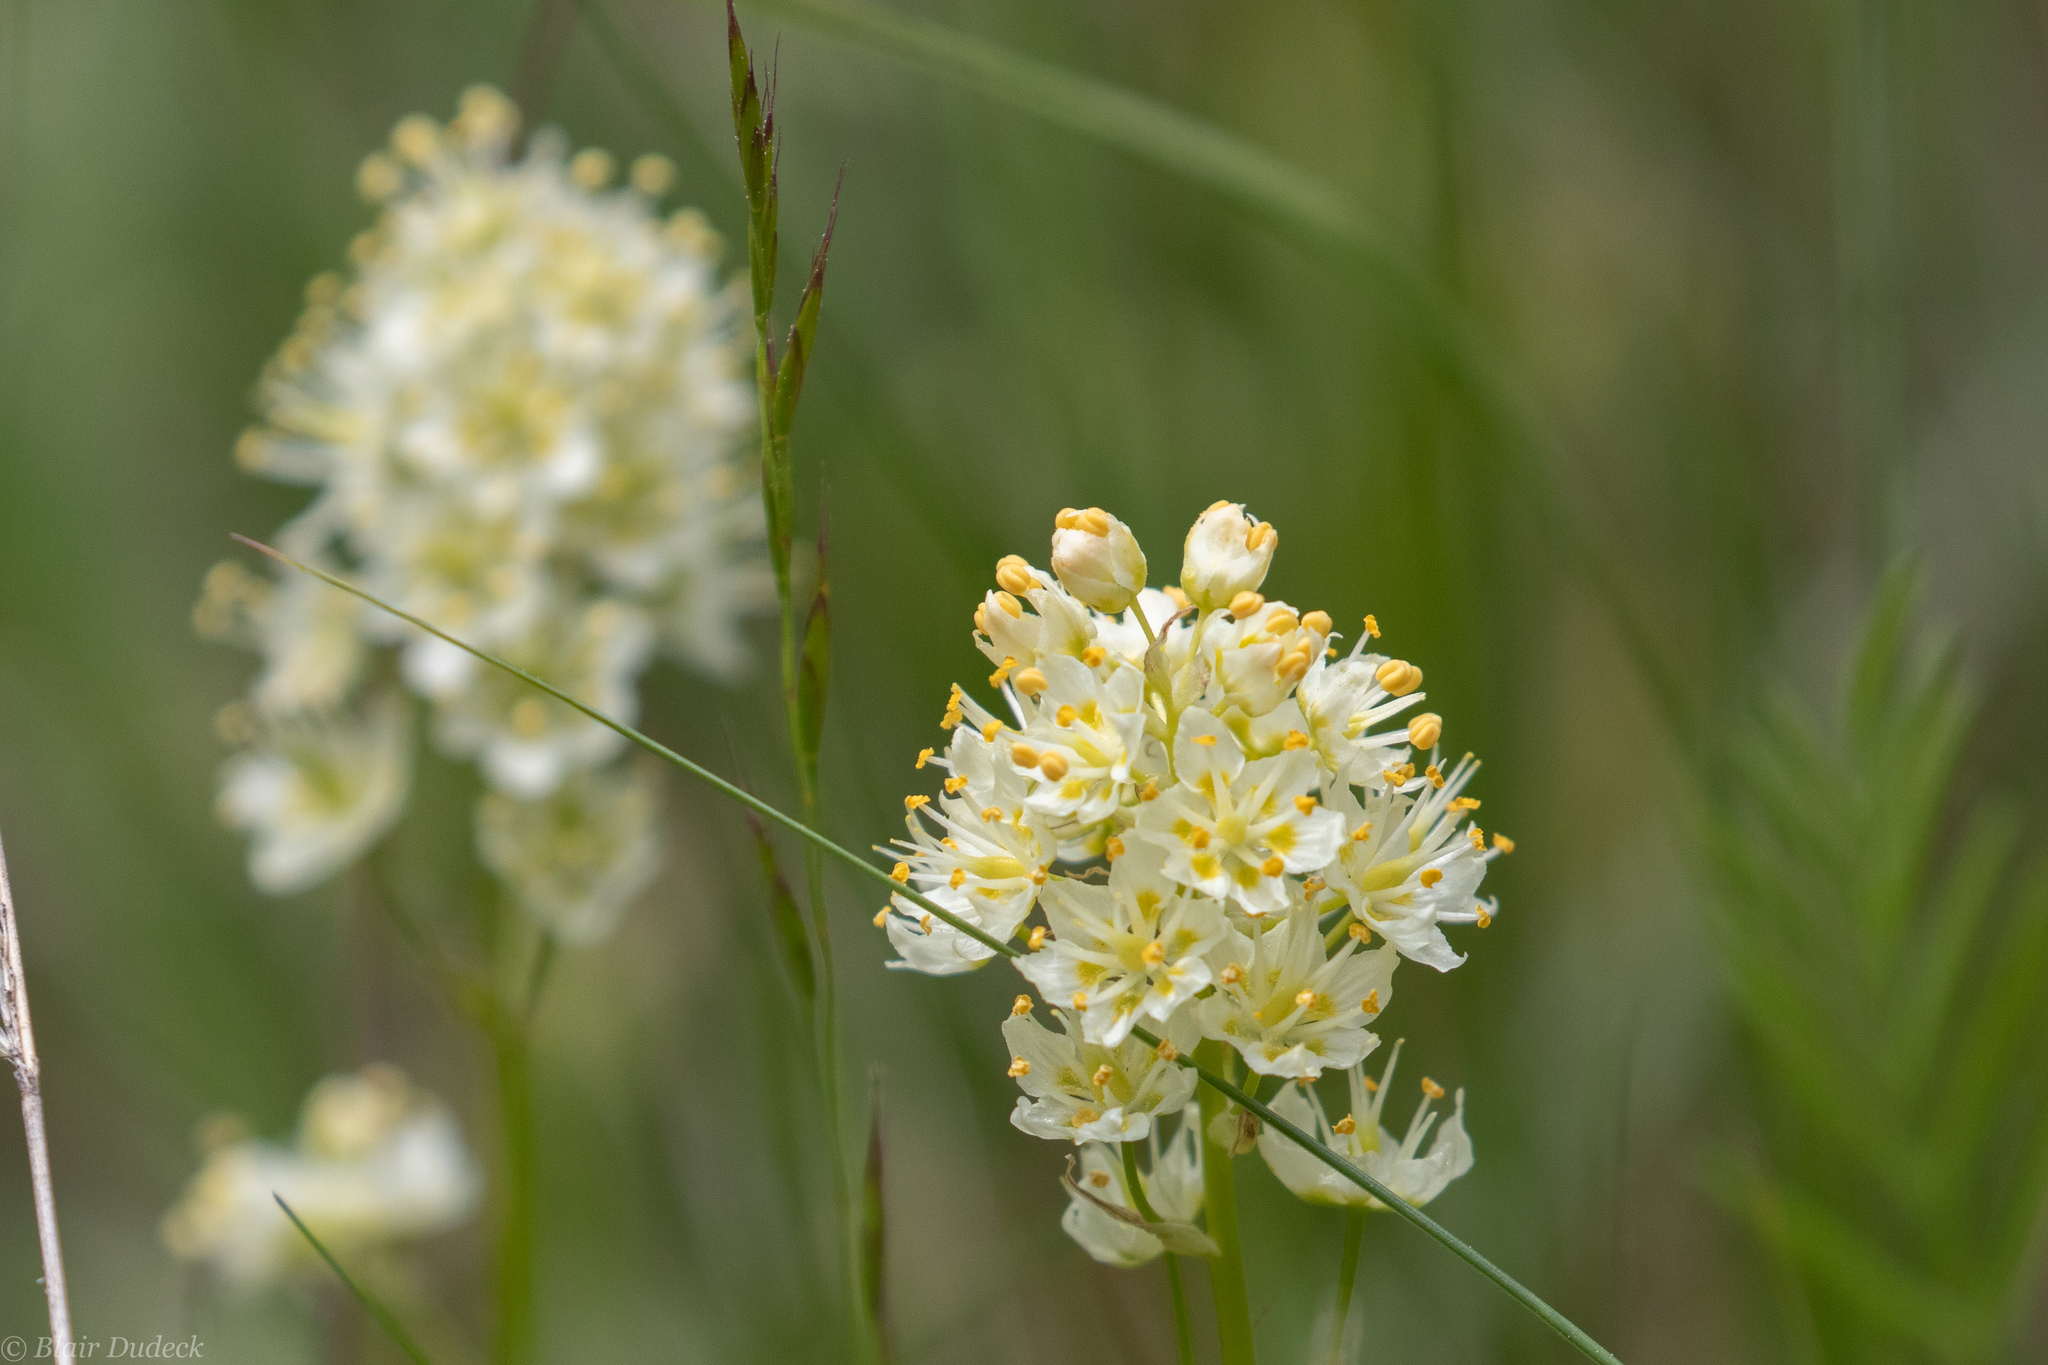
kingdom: Plantae
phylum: Tracheophyta
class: Liliopsida
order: Liliales
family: Melanthiaceae
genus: Toxicoscordion
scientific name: Toxicoscordion venenosum
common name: Meadow death camas
